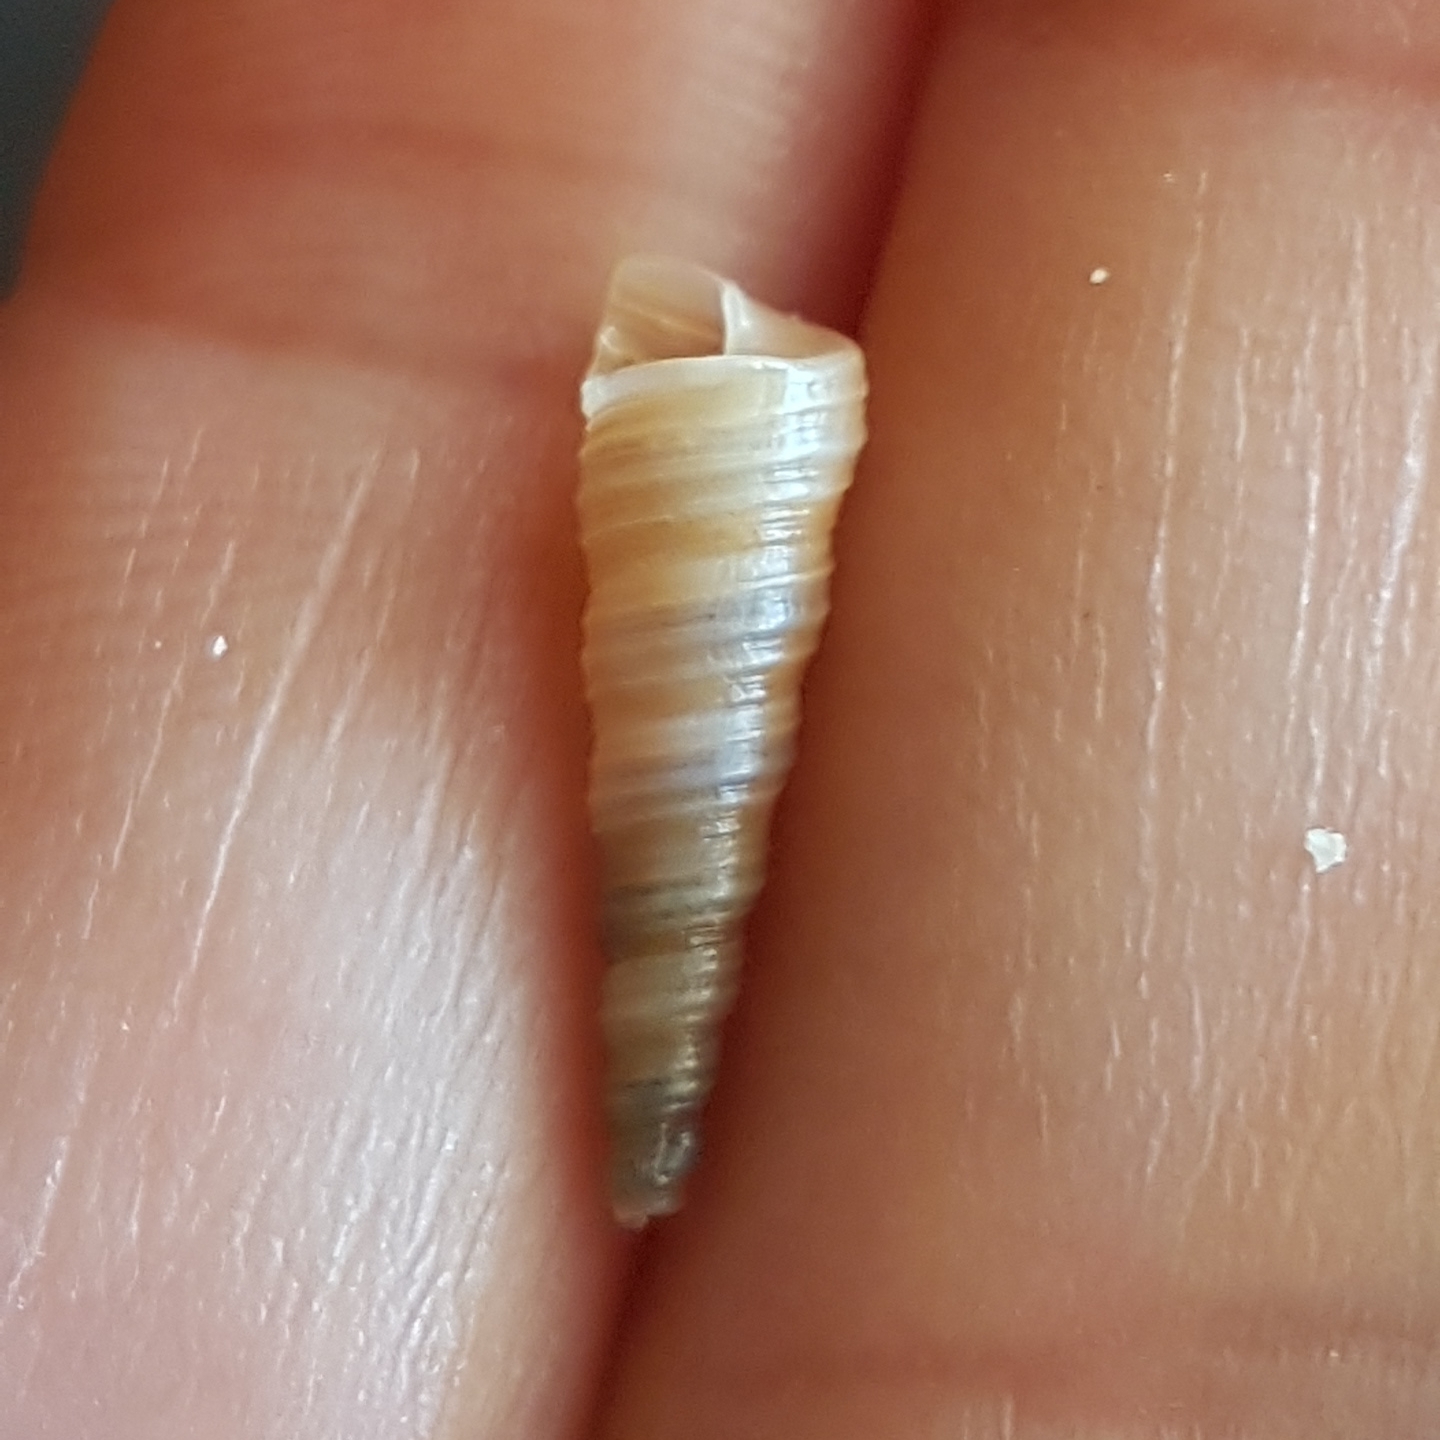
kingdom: Animalia
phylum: Mollusca
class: Gastropoda
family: Turritellidae
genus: Turritellinella
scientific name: Turritellinella tricarinata
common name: Auger shell
